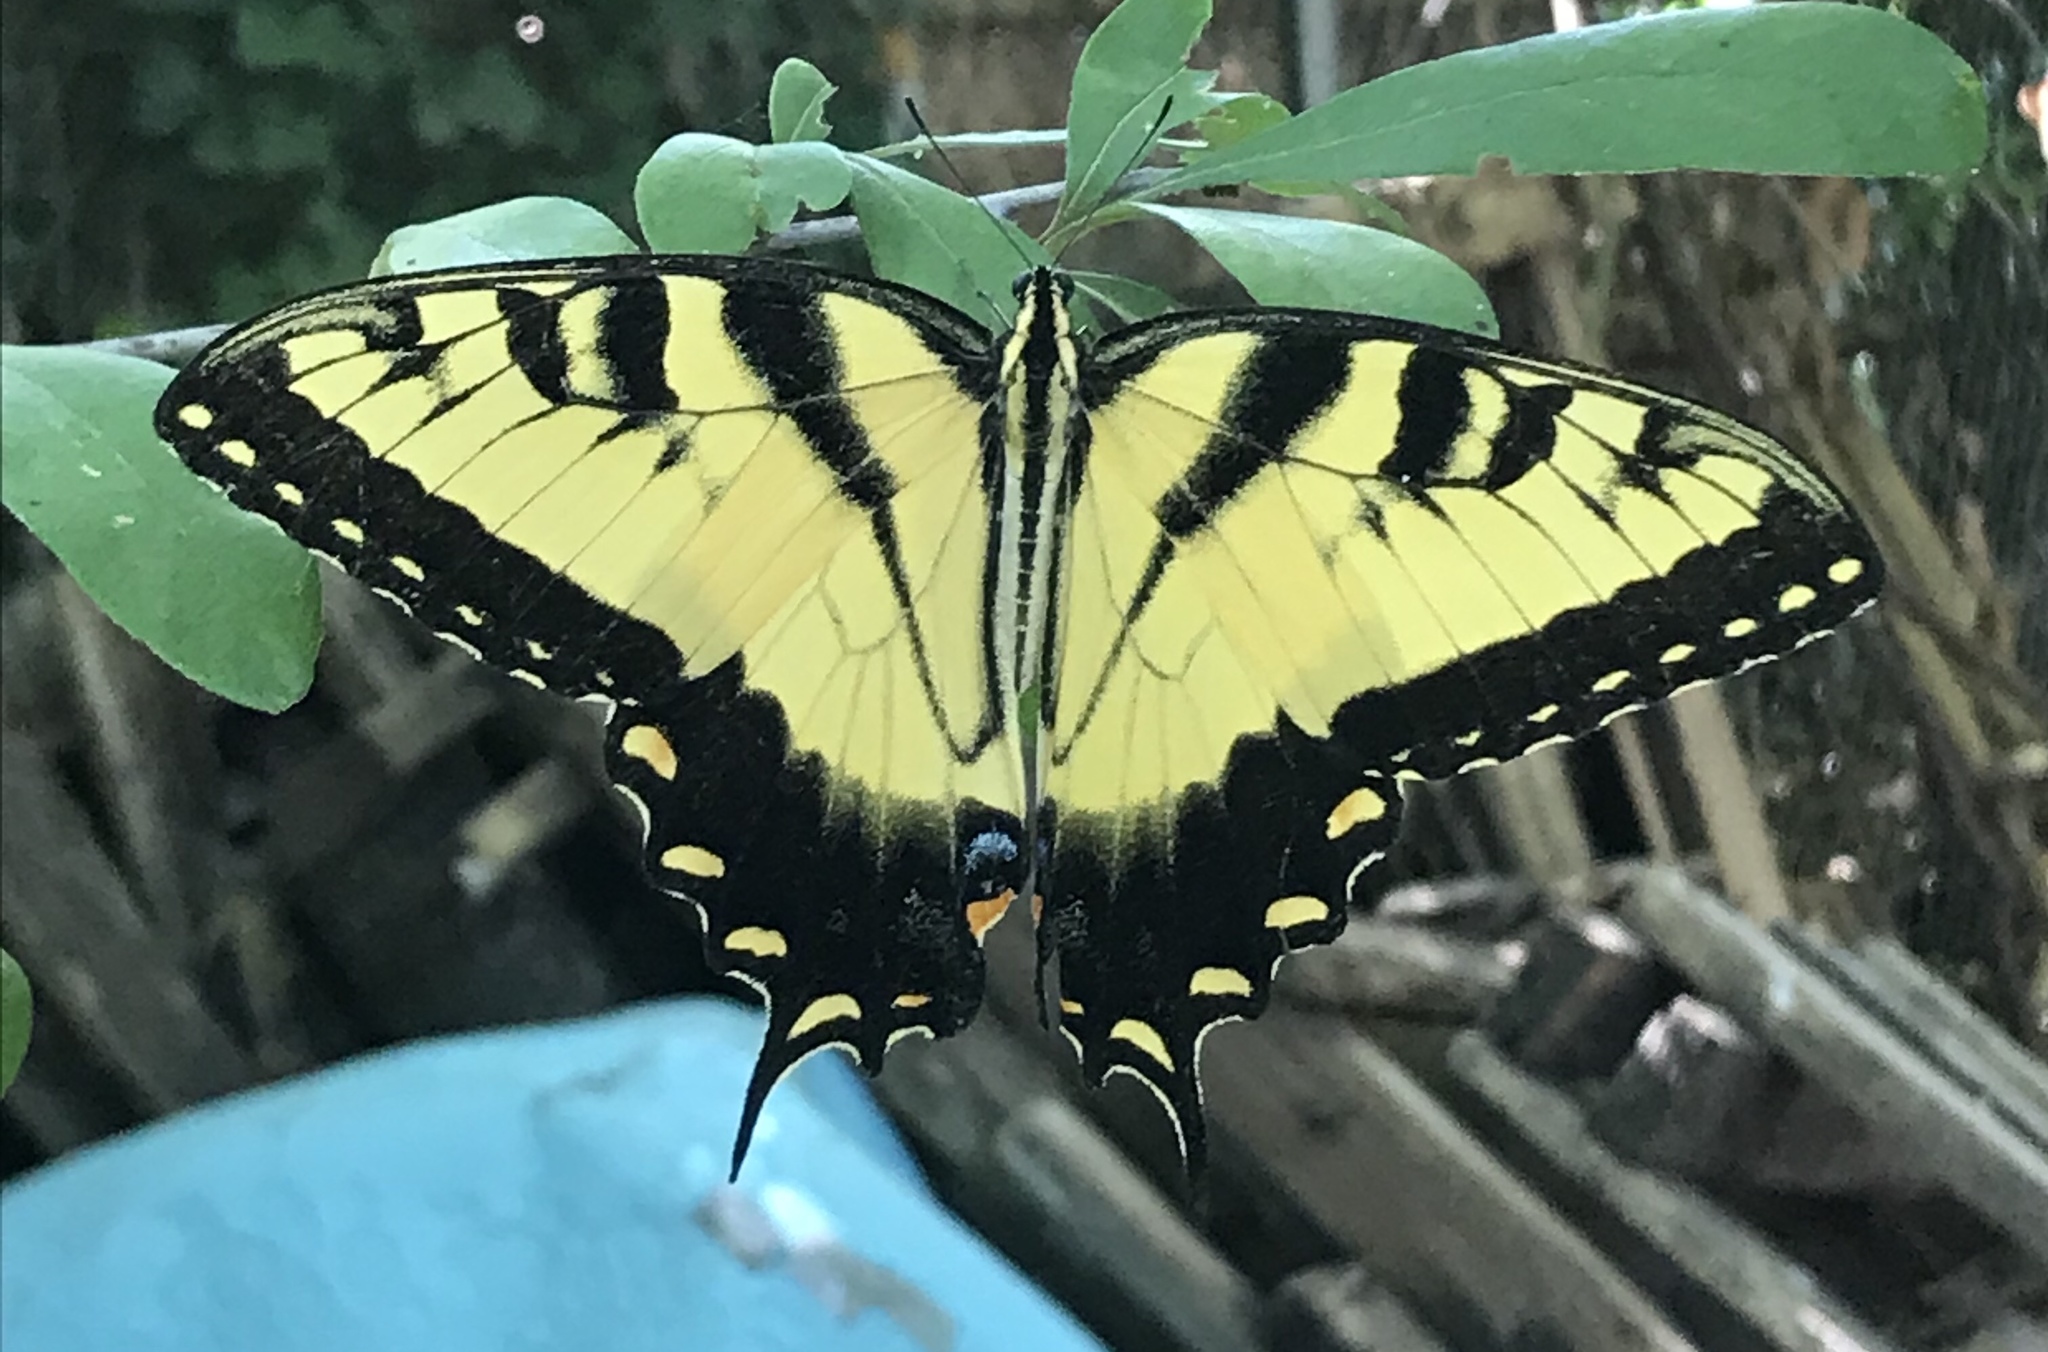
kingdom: Animalia
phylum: Arthropoda
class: Insecta
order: Lepidoptera
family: Papilionidae
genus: Papilio
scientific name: Papilio glaucus
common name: Tiger swallowtail
